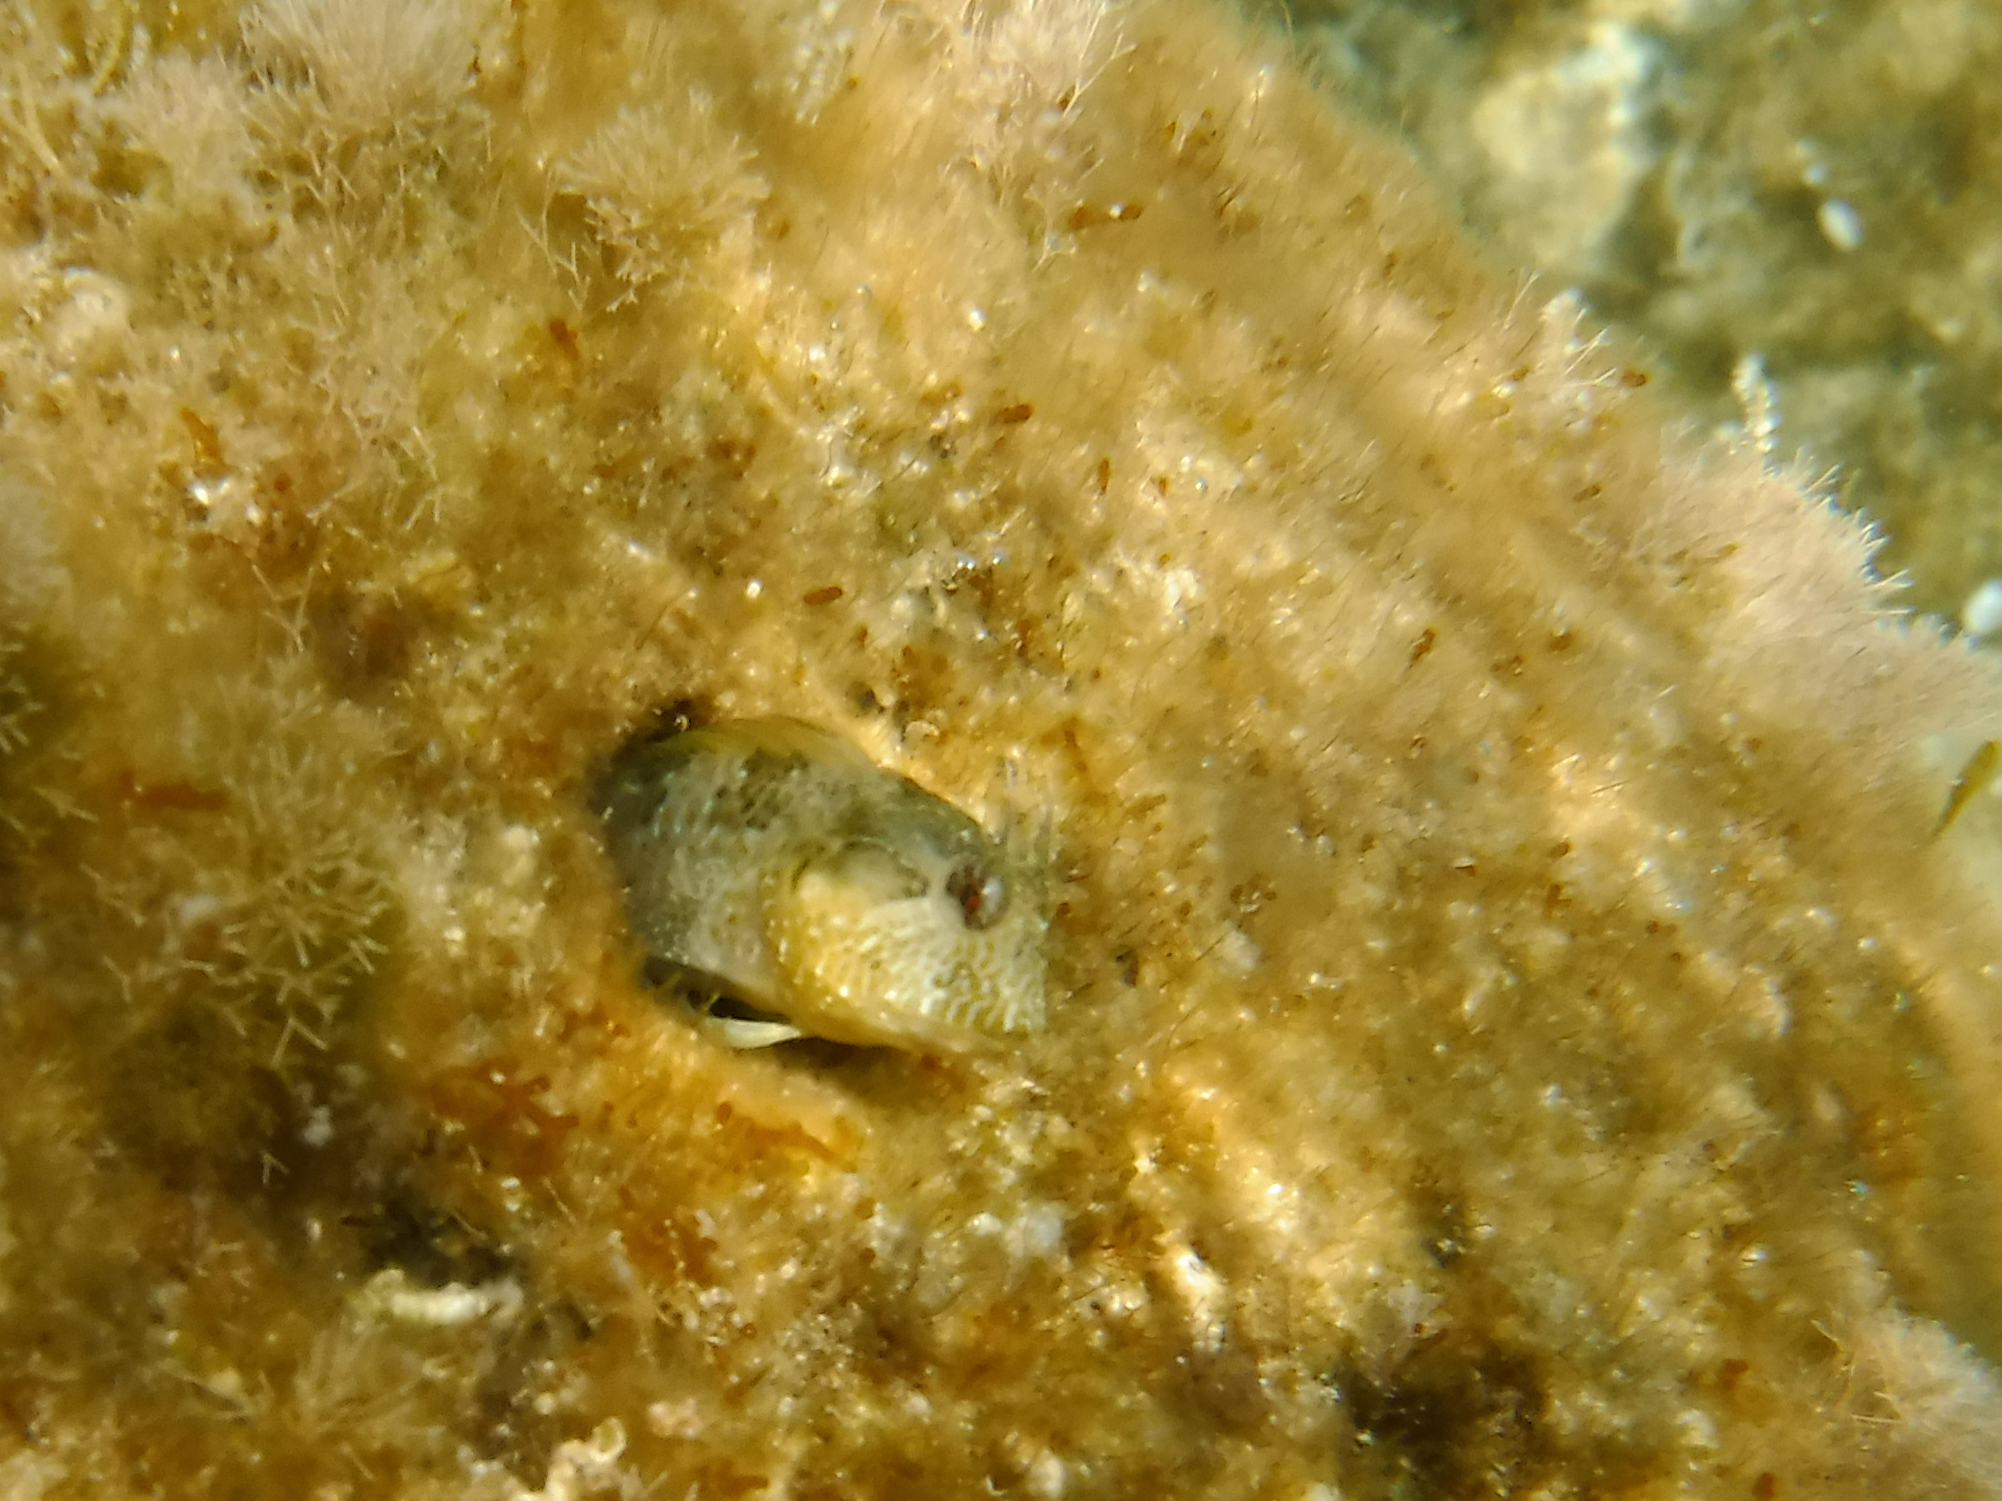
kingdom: Animalia
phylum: Chordata
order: Perciformes
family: Blenniidae
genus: Parablennius
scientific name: Parablennius incognitus
